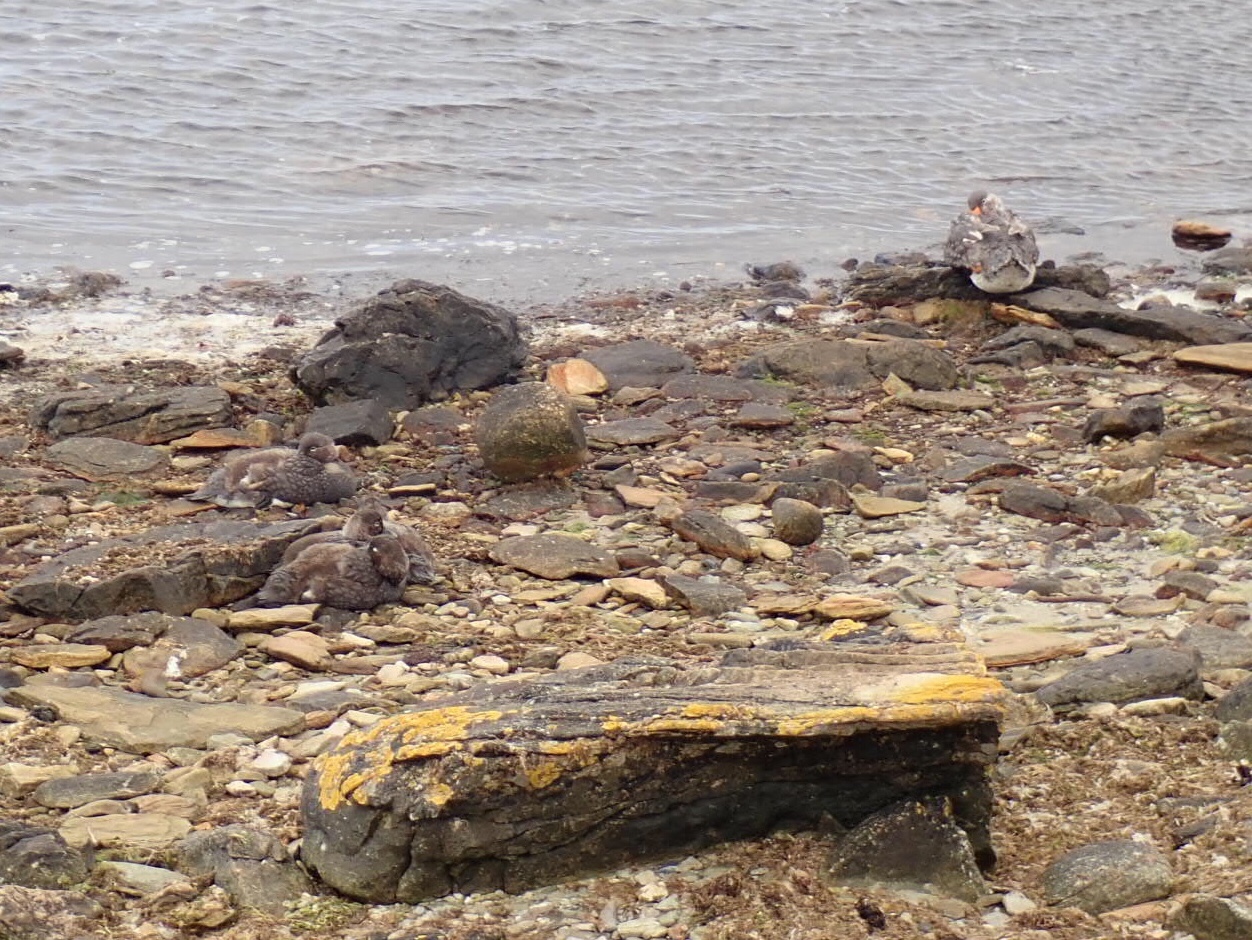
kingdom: Animalia
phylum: Chordata
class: Aves
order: Anseriformes
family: Anatidae
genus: Tachyeres
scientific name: Tachyeres brachypterus
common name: Falkland steamer duck
